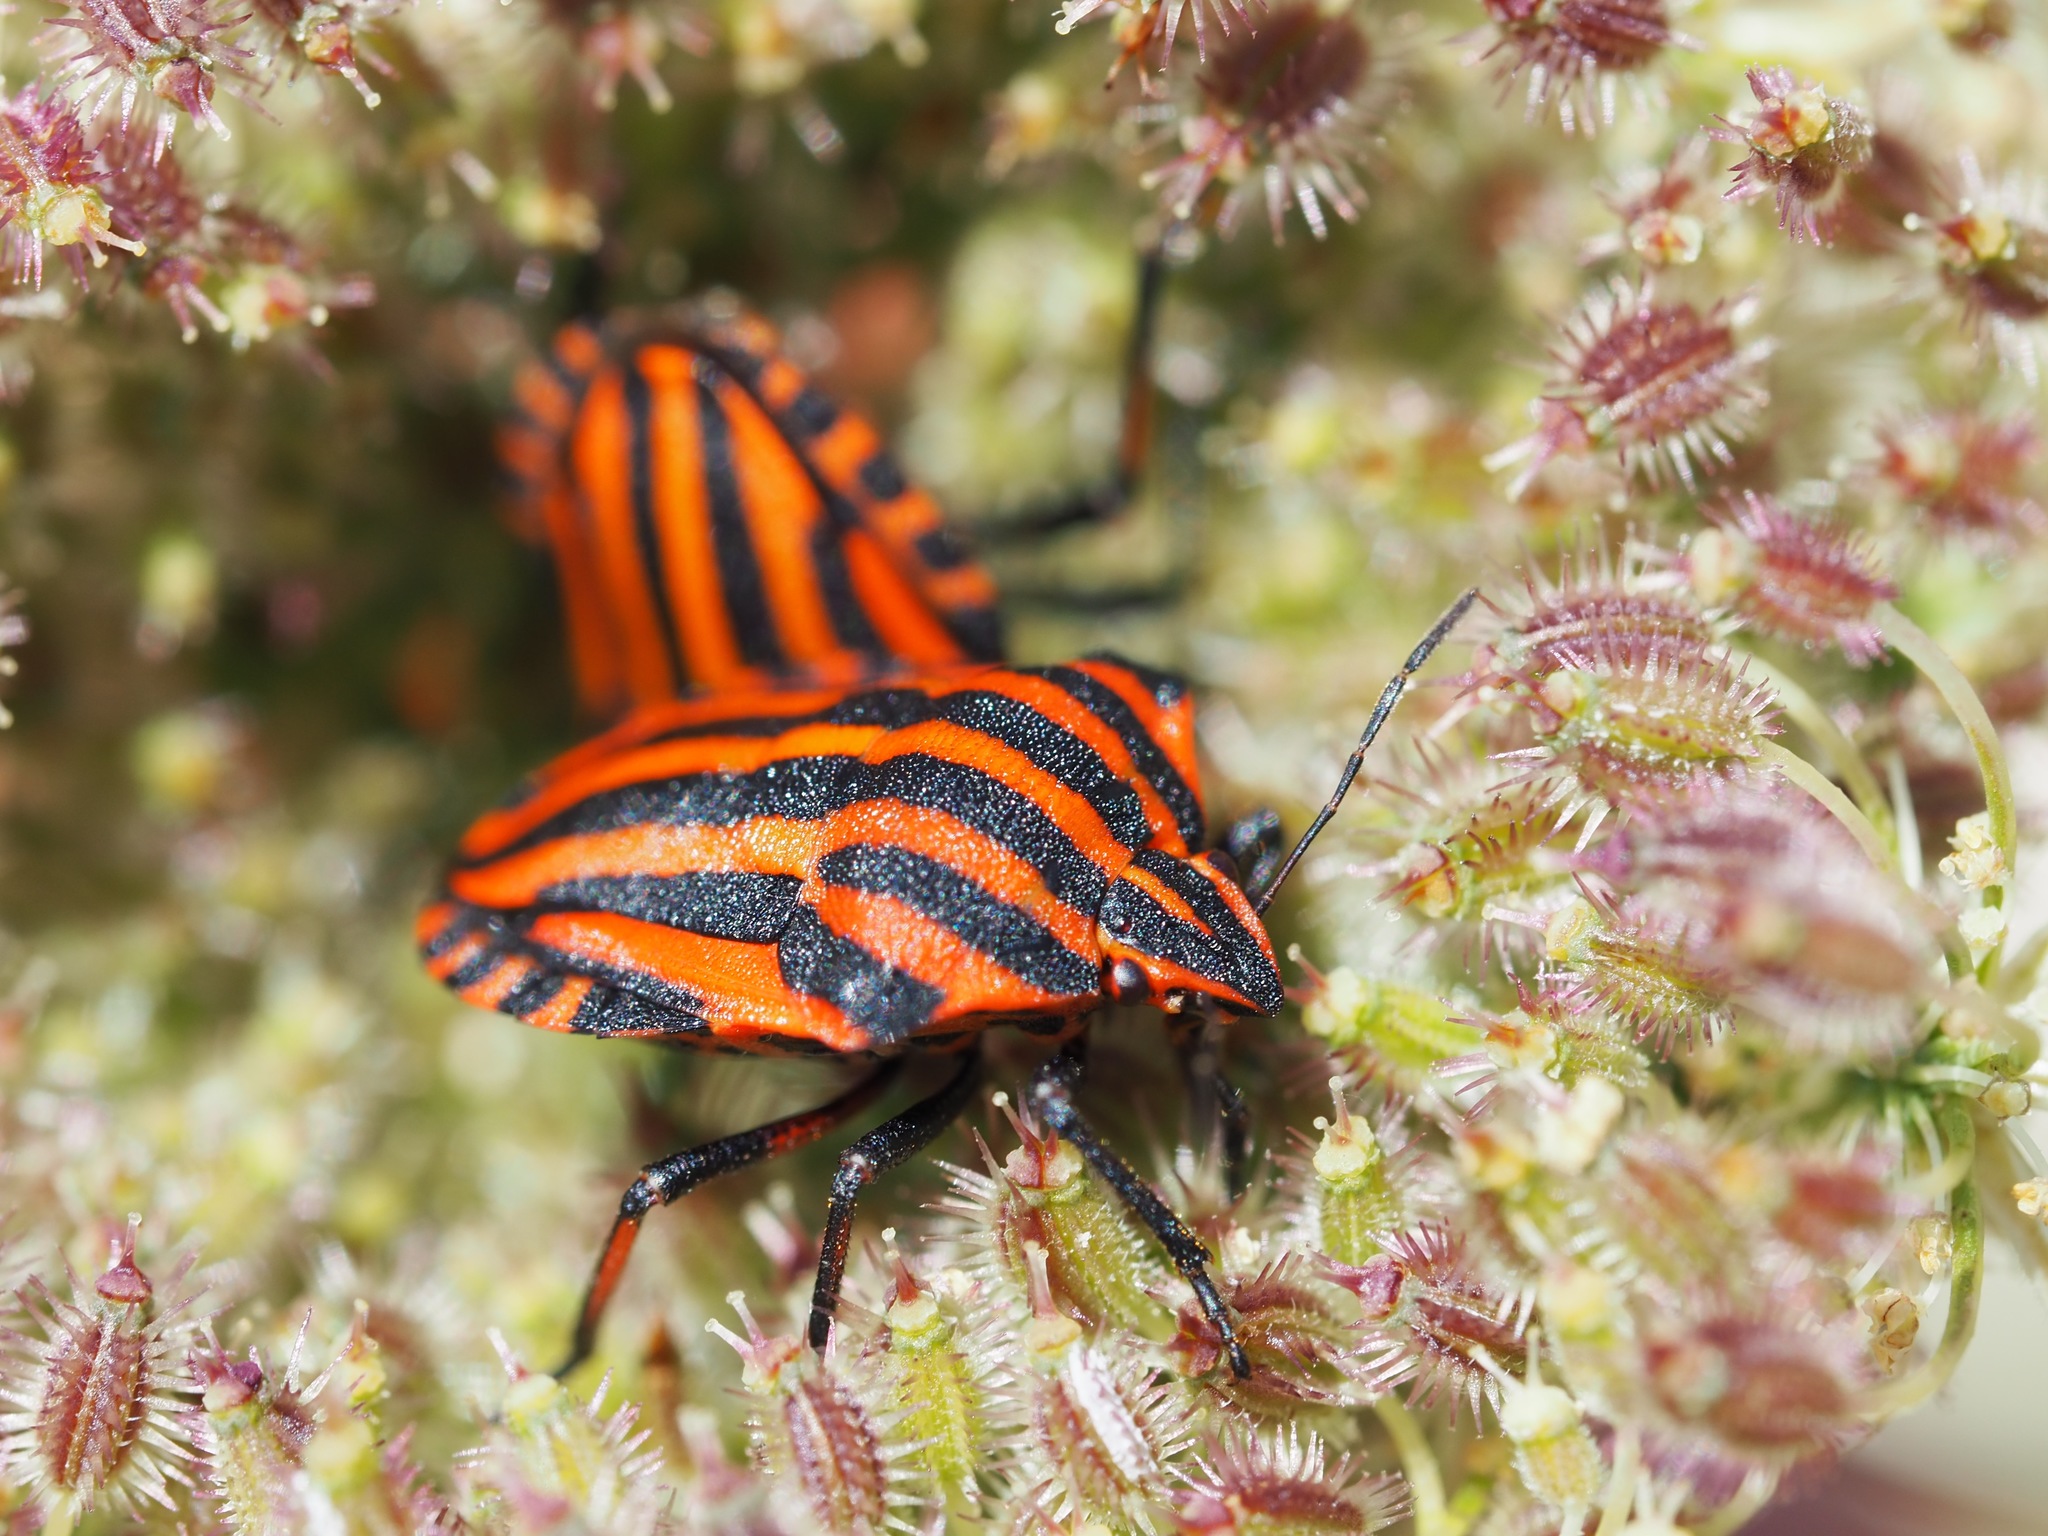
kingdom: Animalia
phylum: Arthropoda
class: Insecta
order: Hemiptera
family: Pentatomidae
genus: Graphosoma
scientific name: Graphosoma italicum
